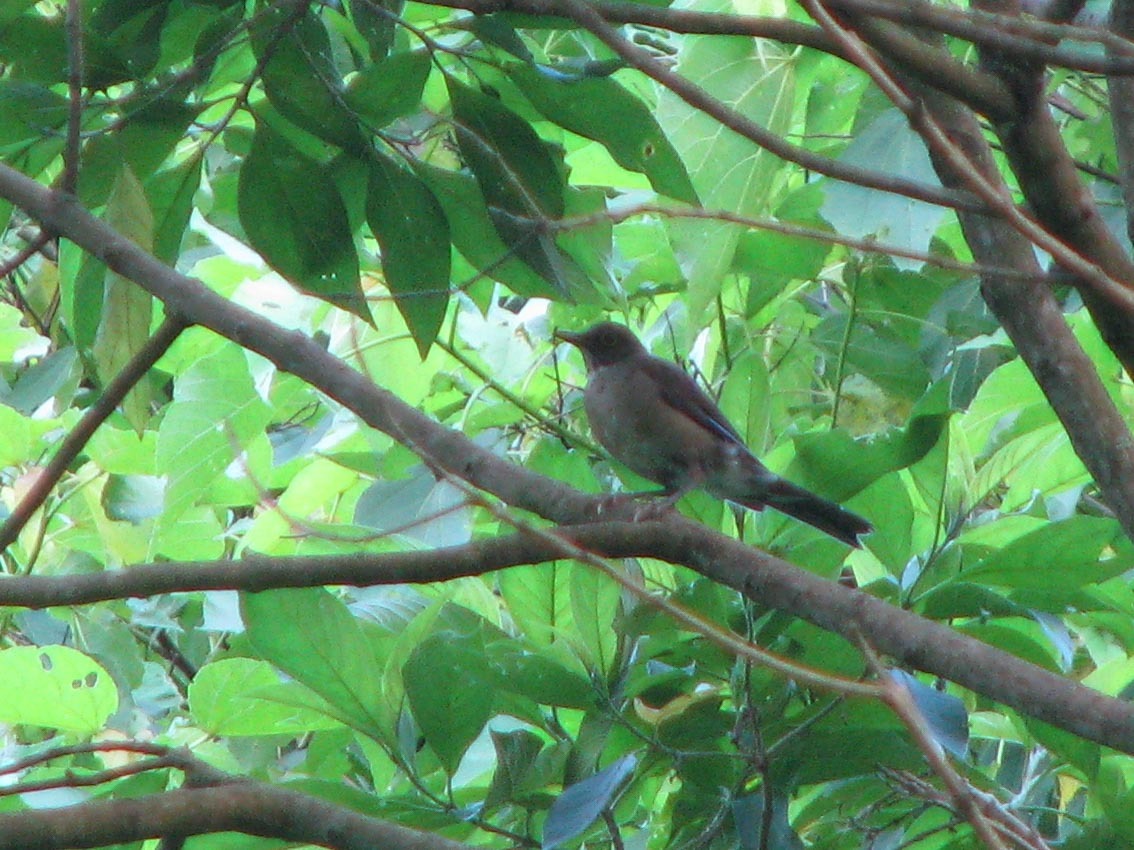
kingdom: Animalia
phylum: Chordata
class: Aves
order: Passeriformes
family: Turdidae
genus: Turdus
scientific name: Turdus assimilis
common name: White-throated thrush
